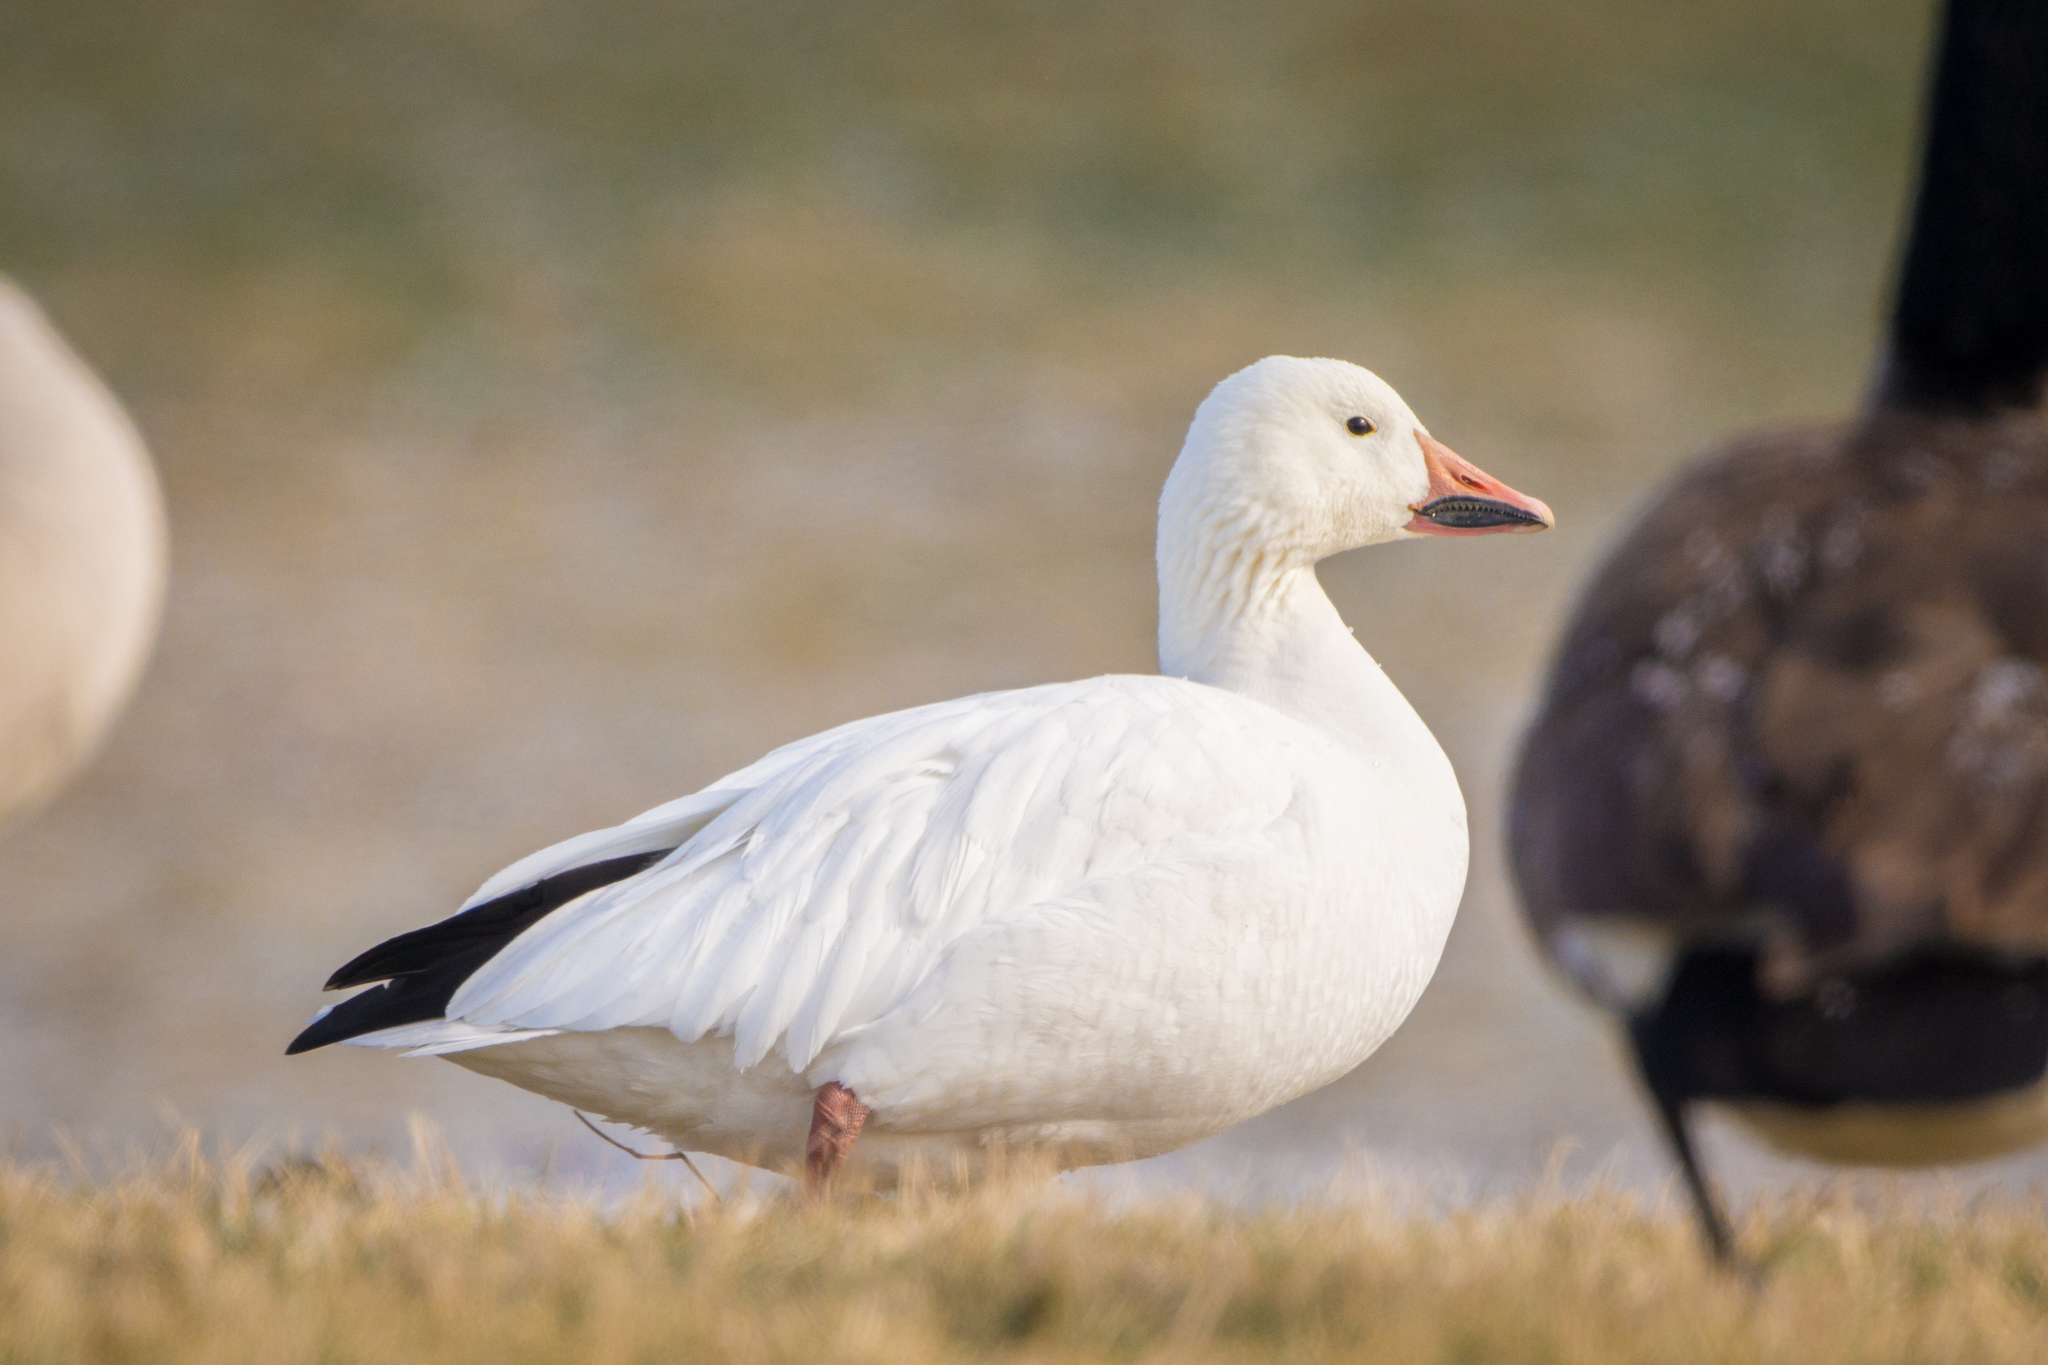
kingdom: Animalia
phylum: Chordata
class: Aves
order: Anseriformes
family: Anatidae
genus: Anser
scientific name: Anser caerulescens
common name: Snow goose
